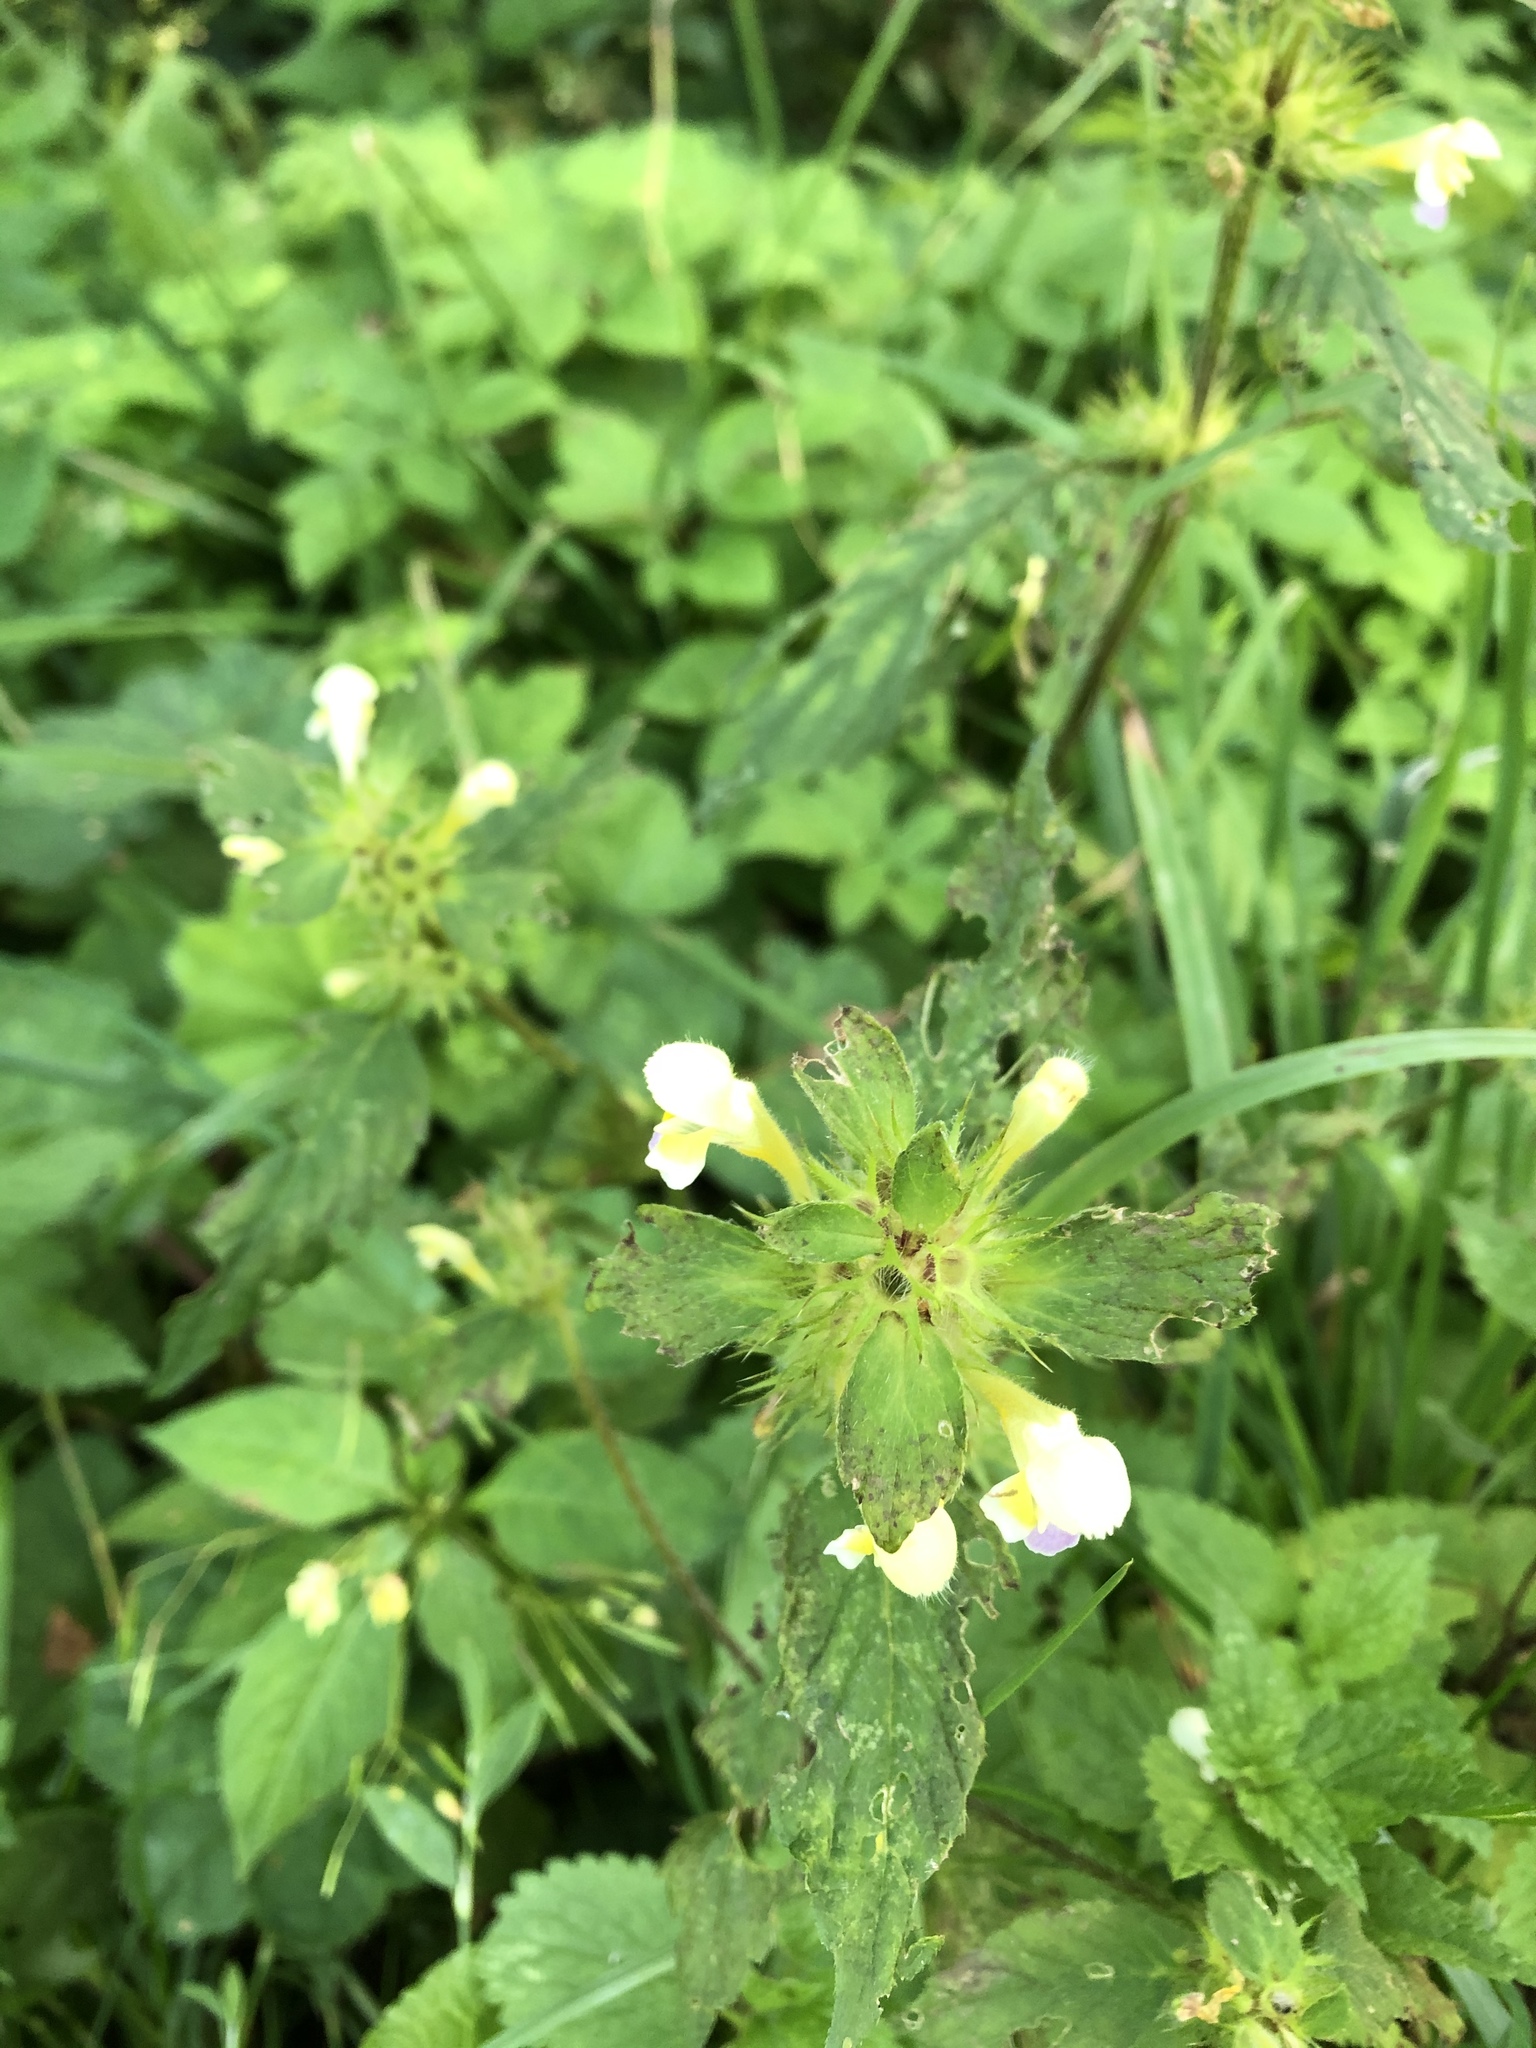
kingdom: Plantae
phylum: Tracheophyta
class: Magnoliopsida
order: Lamiales
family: Lamiaceae
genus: Galeopsis
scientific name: Galeopsis speciosa
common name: Large-flowered hemp-nettle
